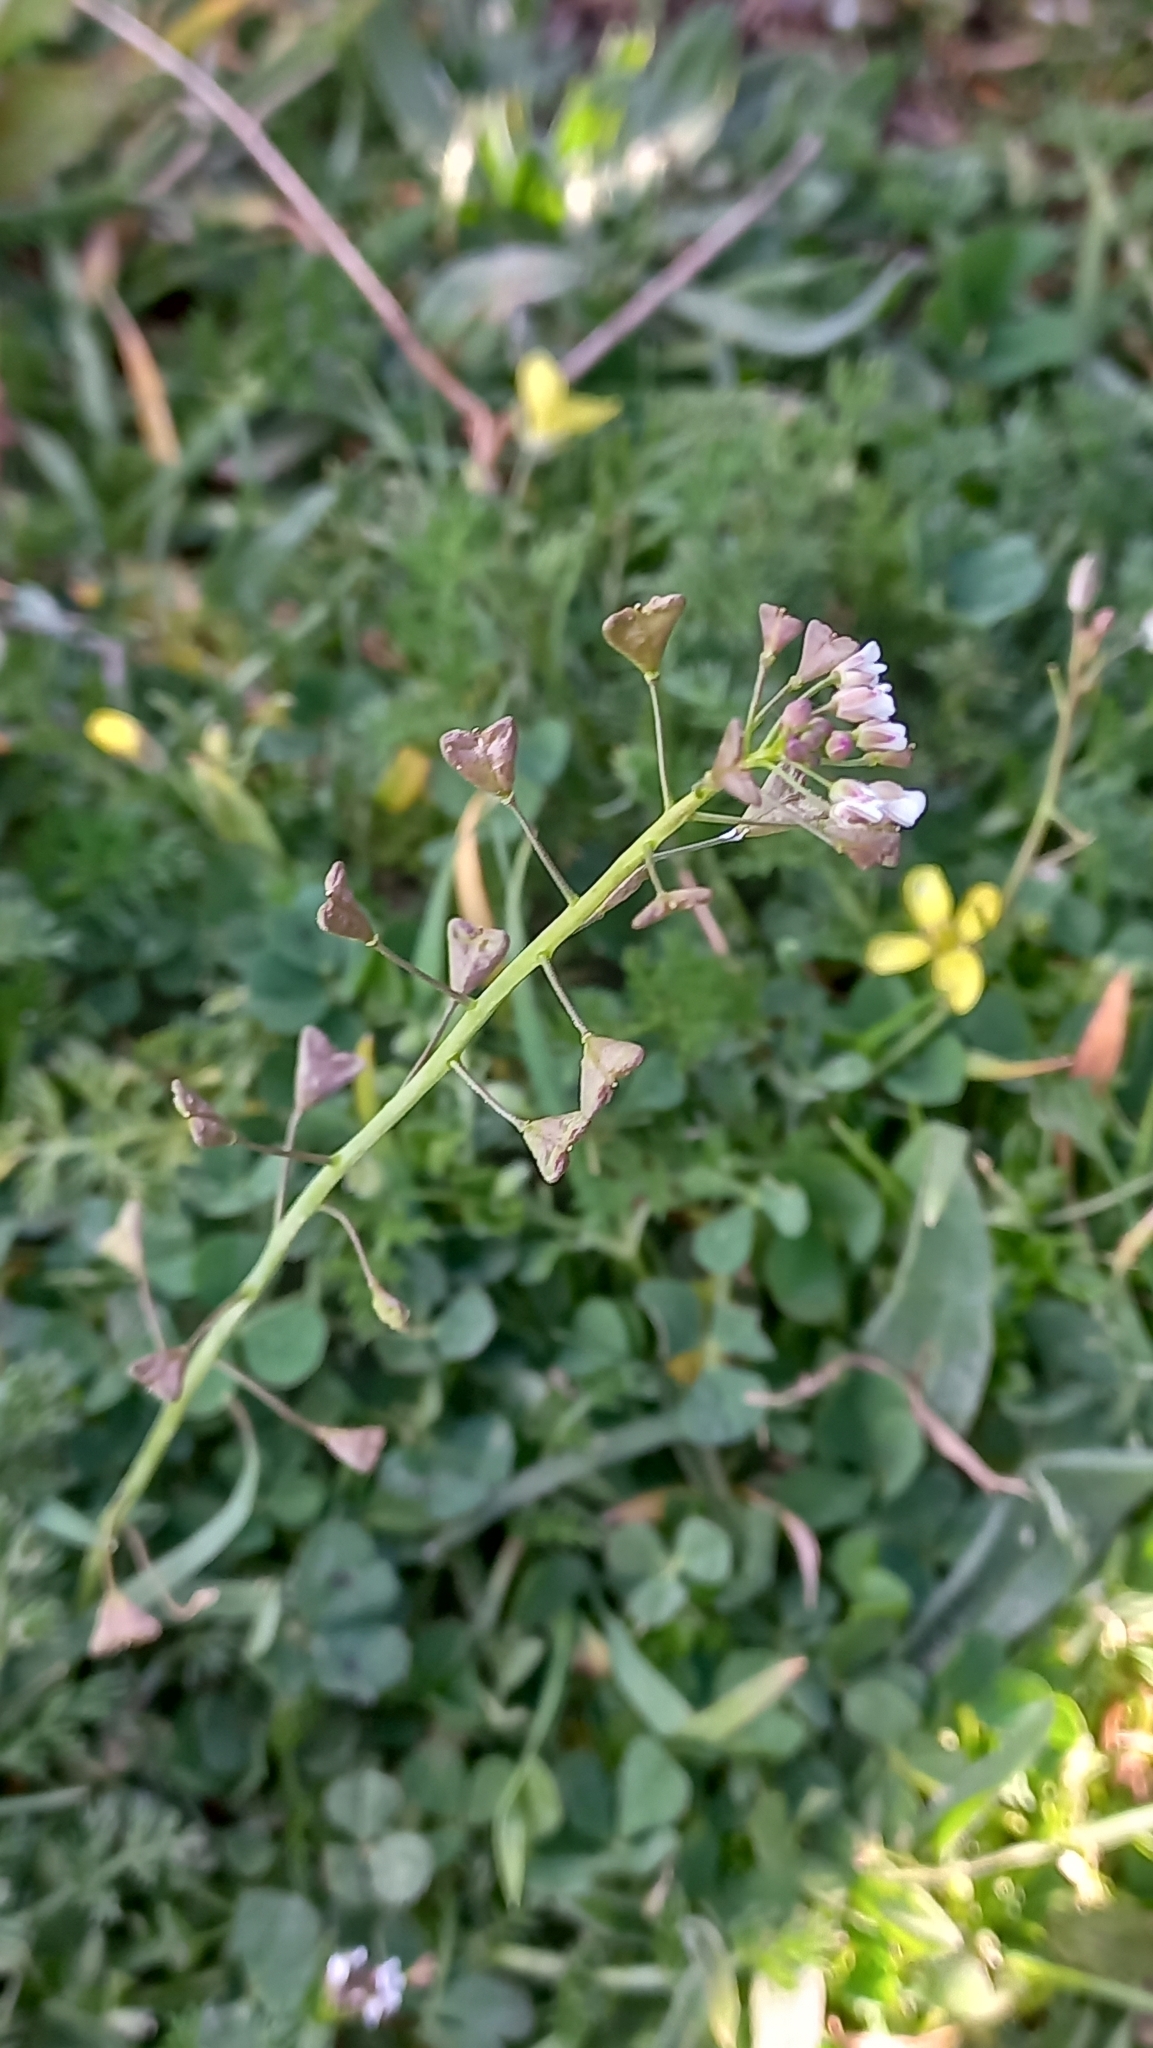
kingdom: Plantae
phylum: Tracheophyta
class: Magnoliopsida
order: Brassicales
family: Brassicaceae
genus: Capsella
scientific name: Capsella bursa-pastoris
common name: Shepherd's purse
